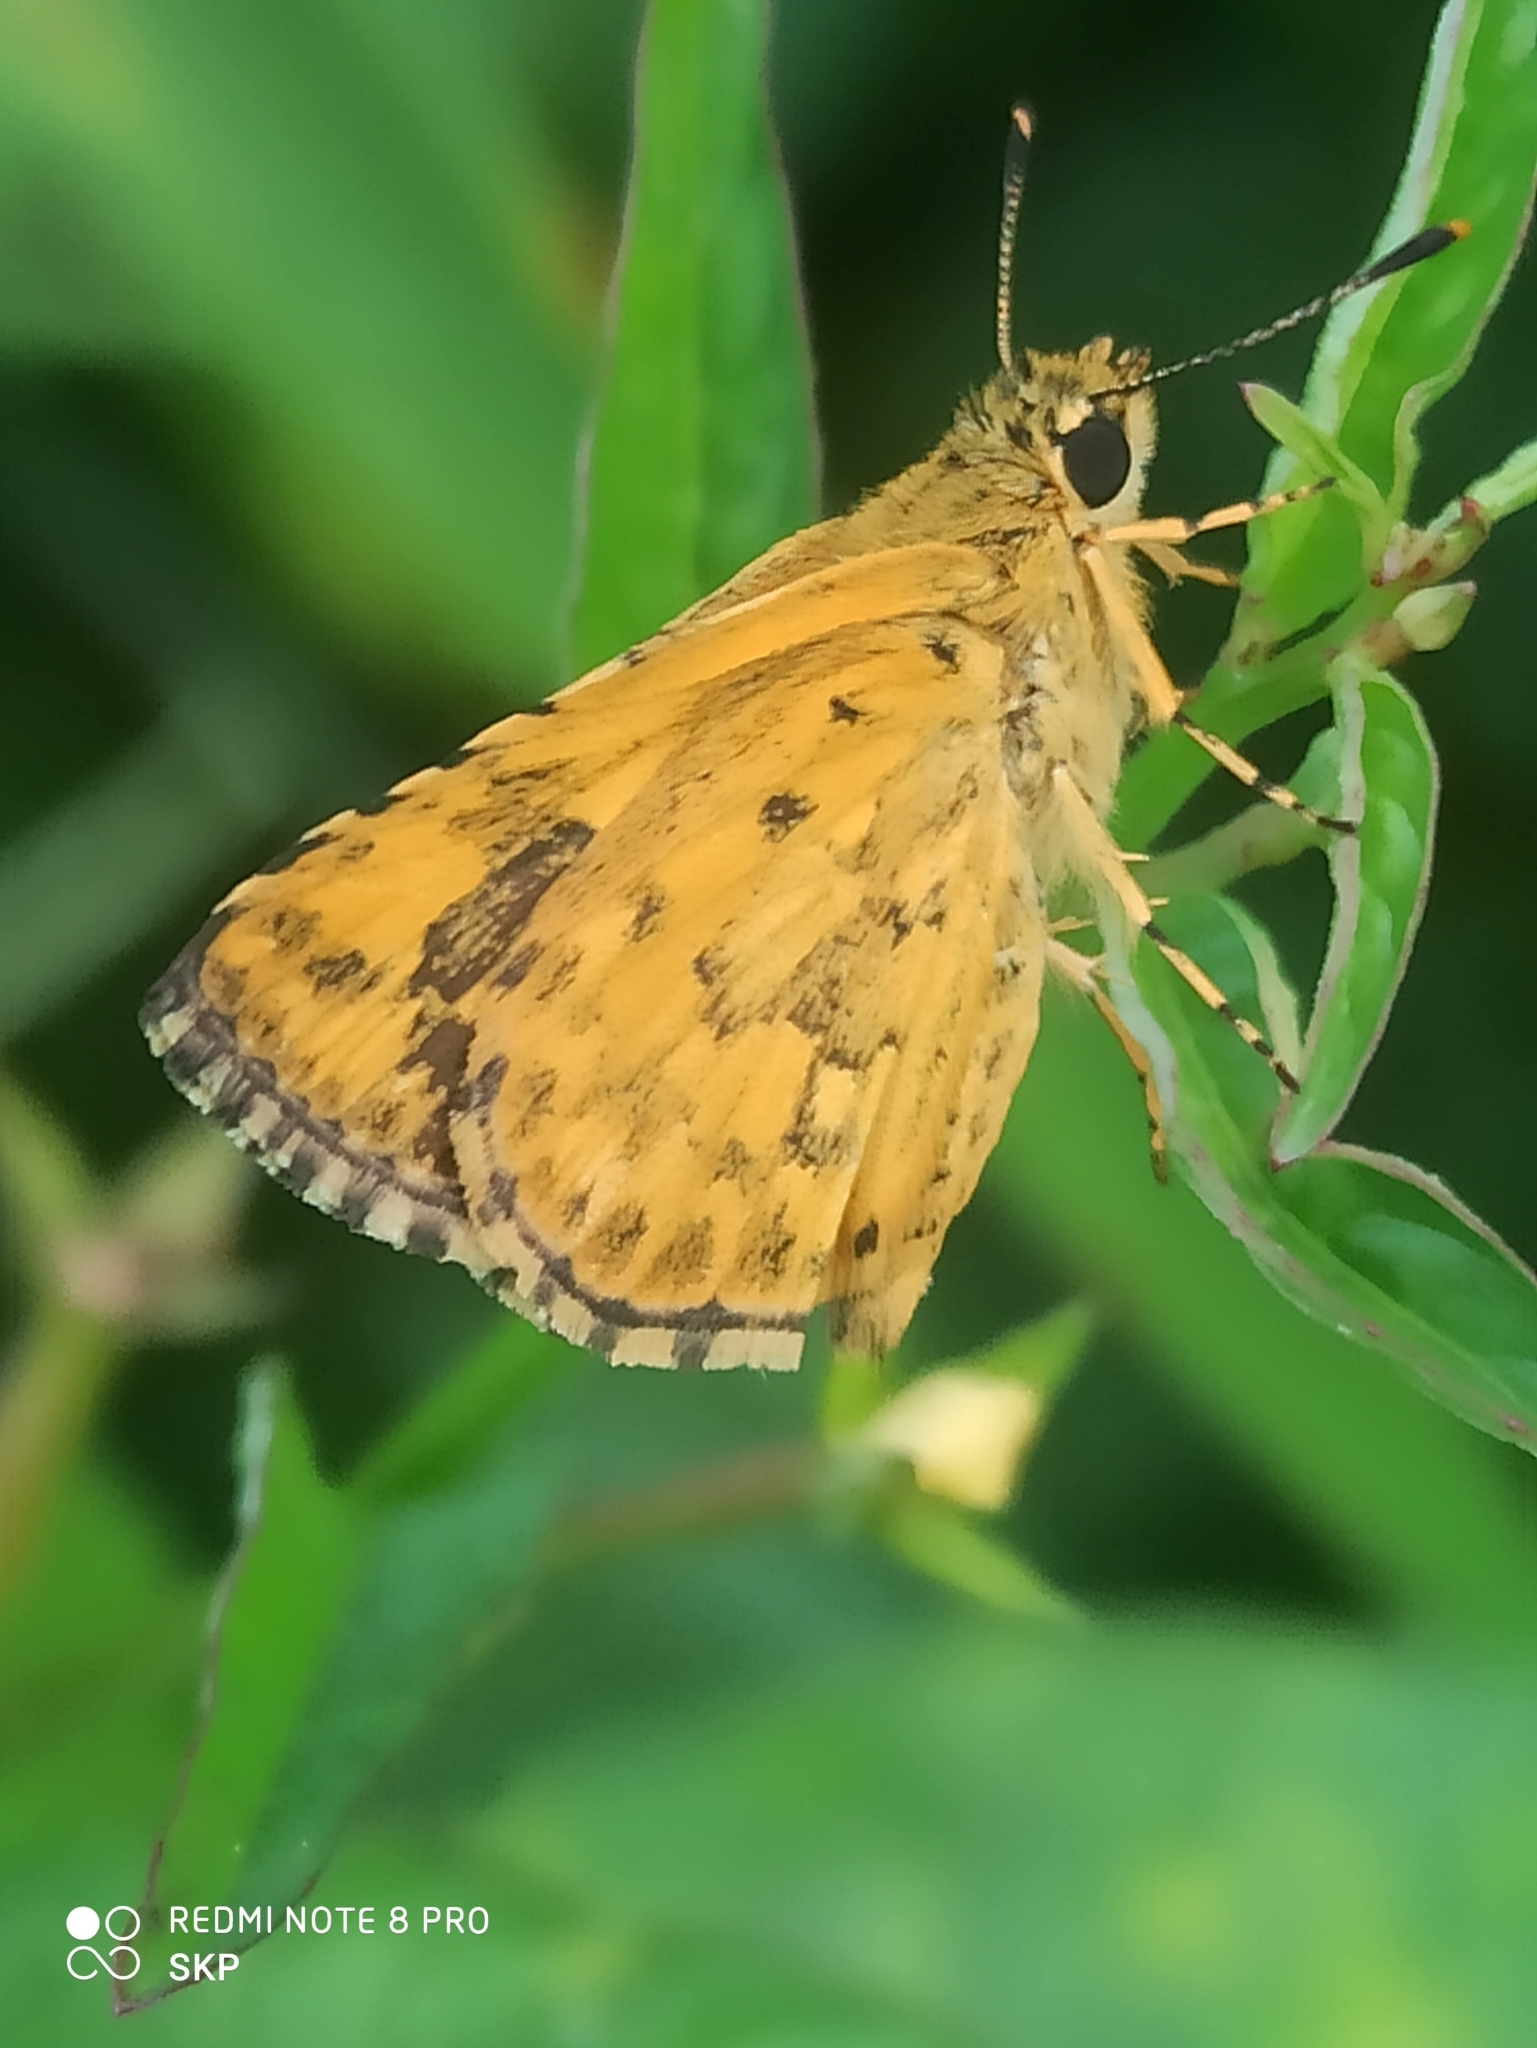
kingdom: Animalia
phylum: Arthropoda
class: Insecta
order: Lepidoptera
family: Hesperiidae
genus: Ampittia
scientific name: Ampittia dioscorides
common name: Common bush hopper
